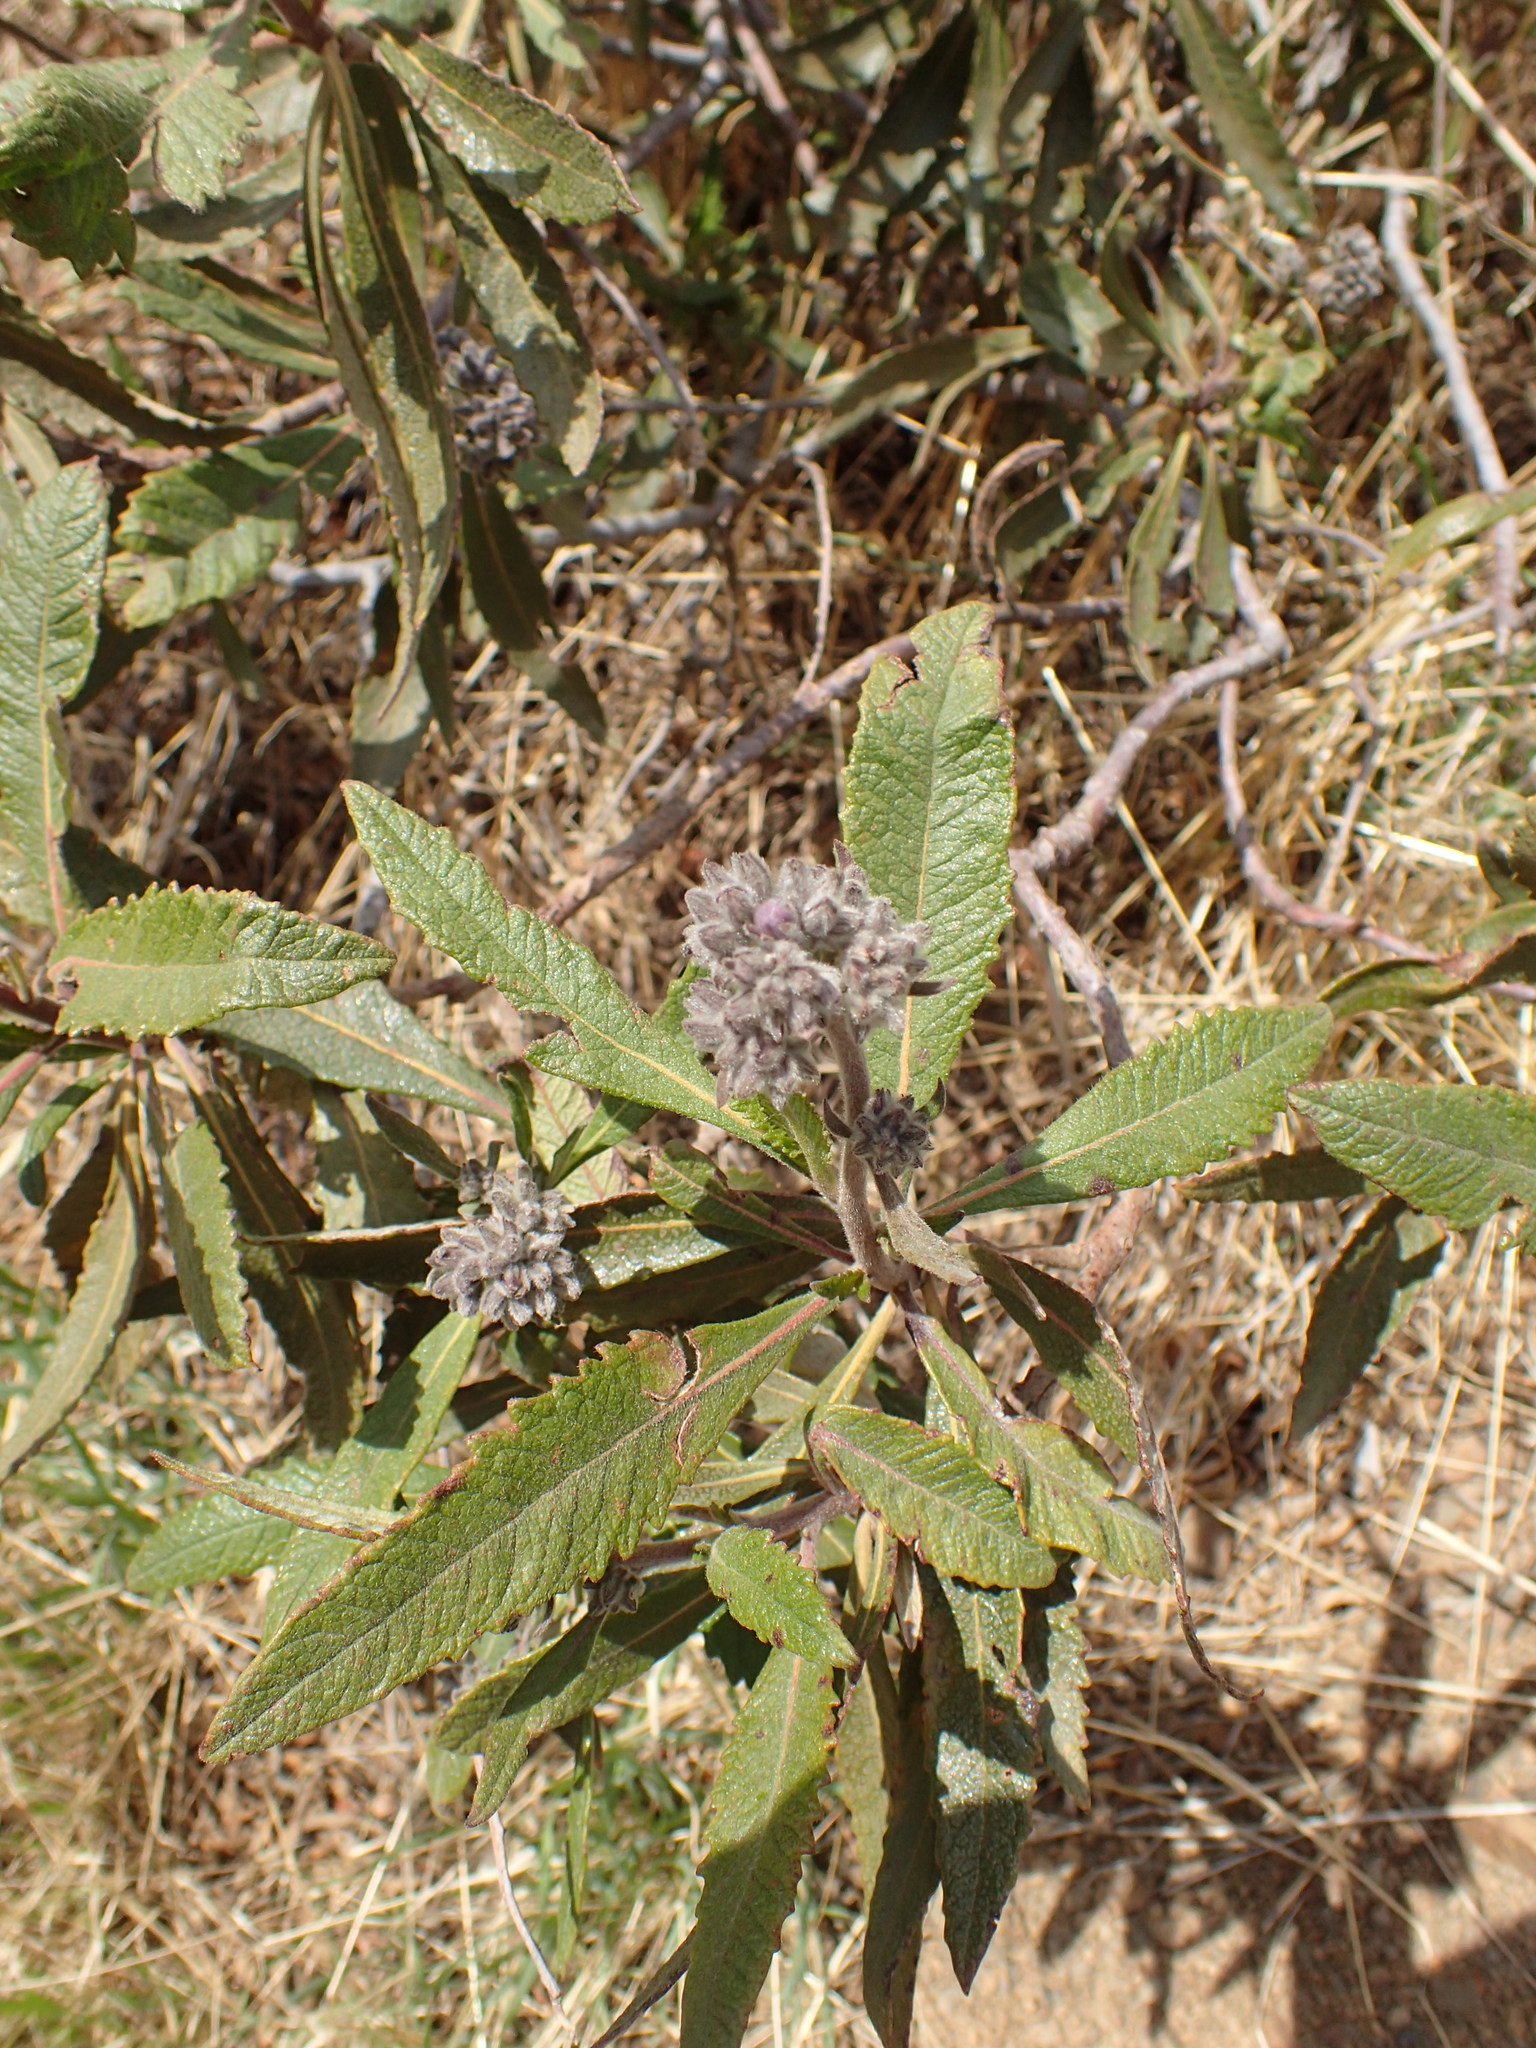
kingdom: Plantae
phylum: Tracheophyta
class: Magnoliopsida
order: Boraginales
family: Namaceae
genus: Eriodictyon
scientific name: Eriodictyon crassifolium
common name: Thick-leaf yerba-santa
